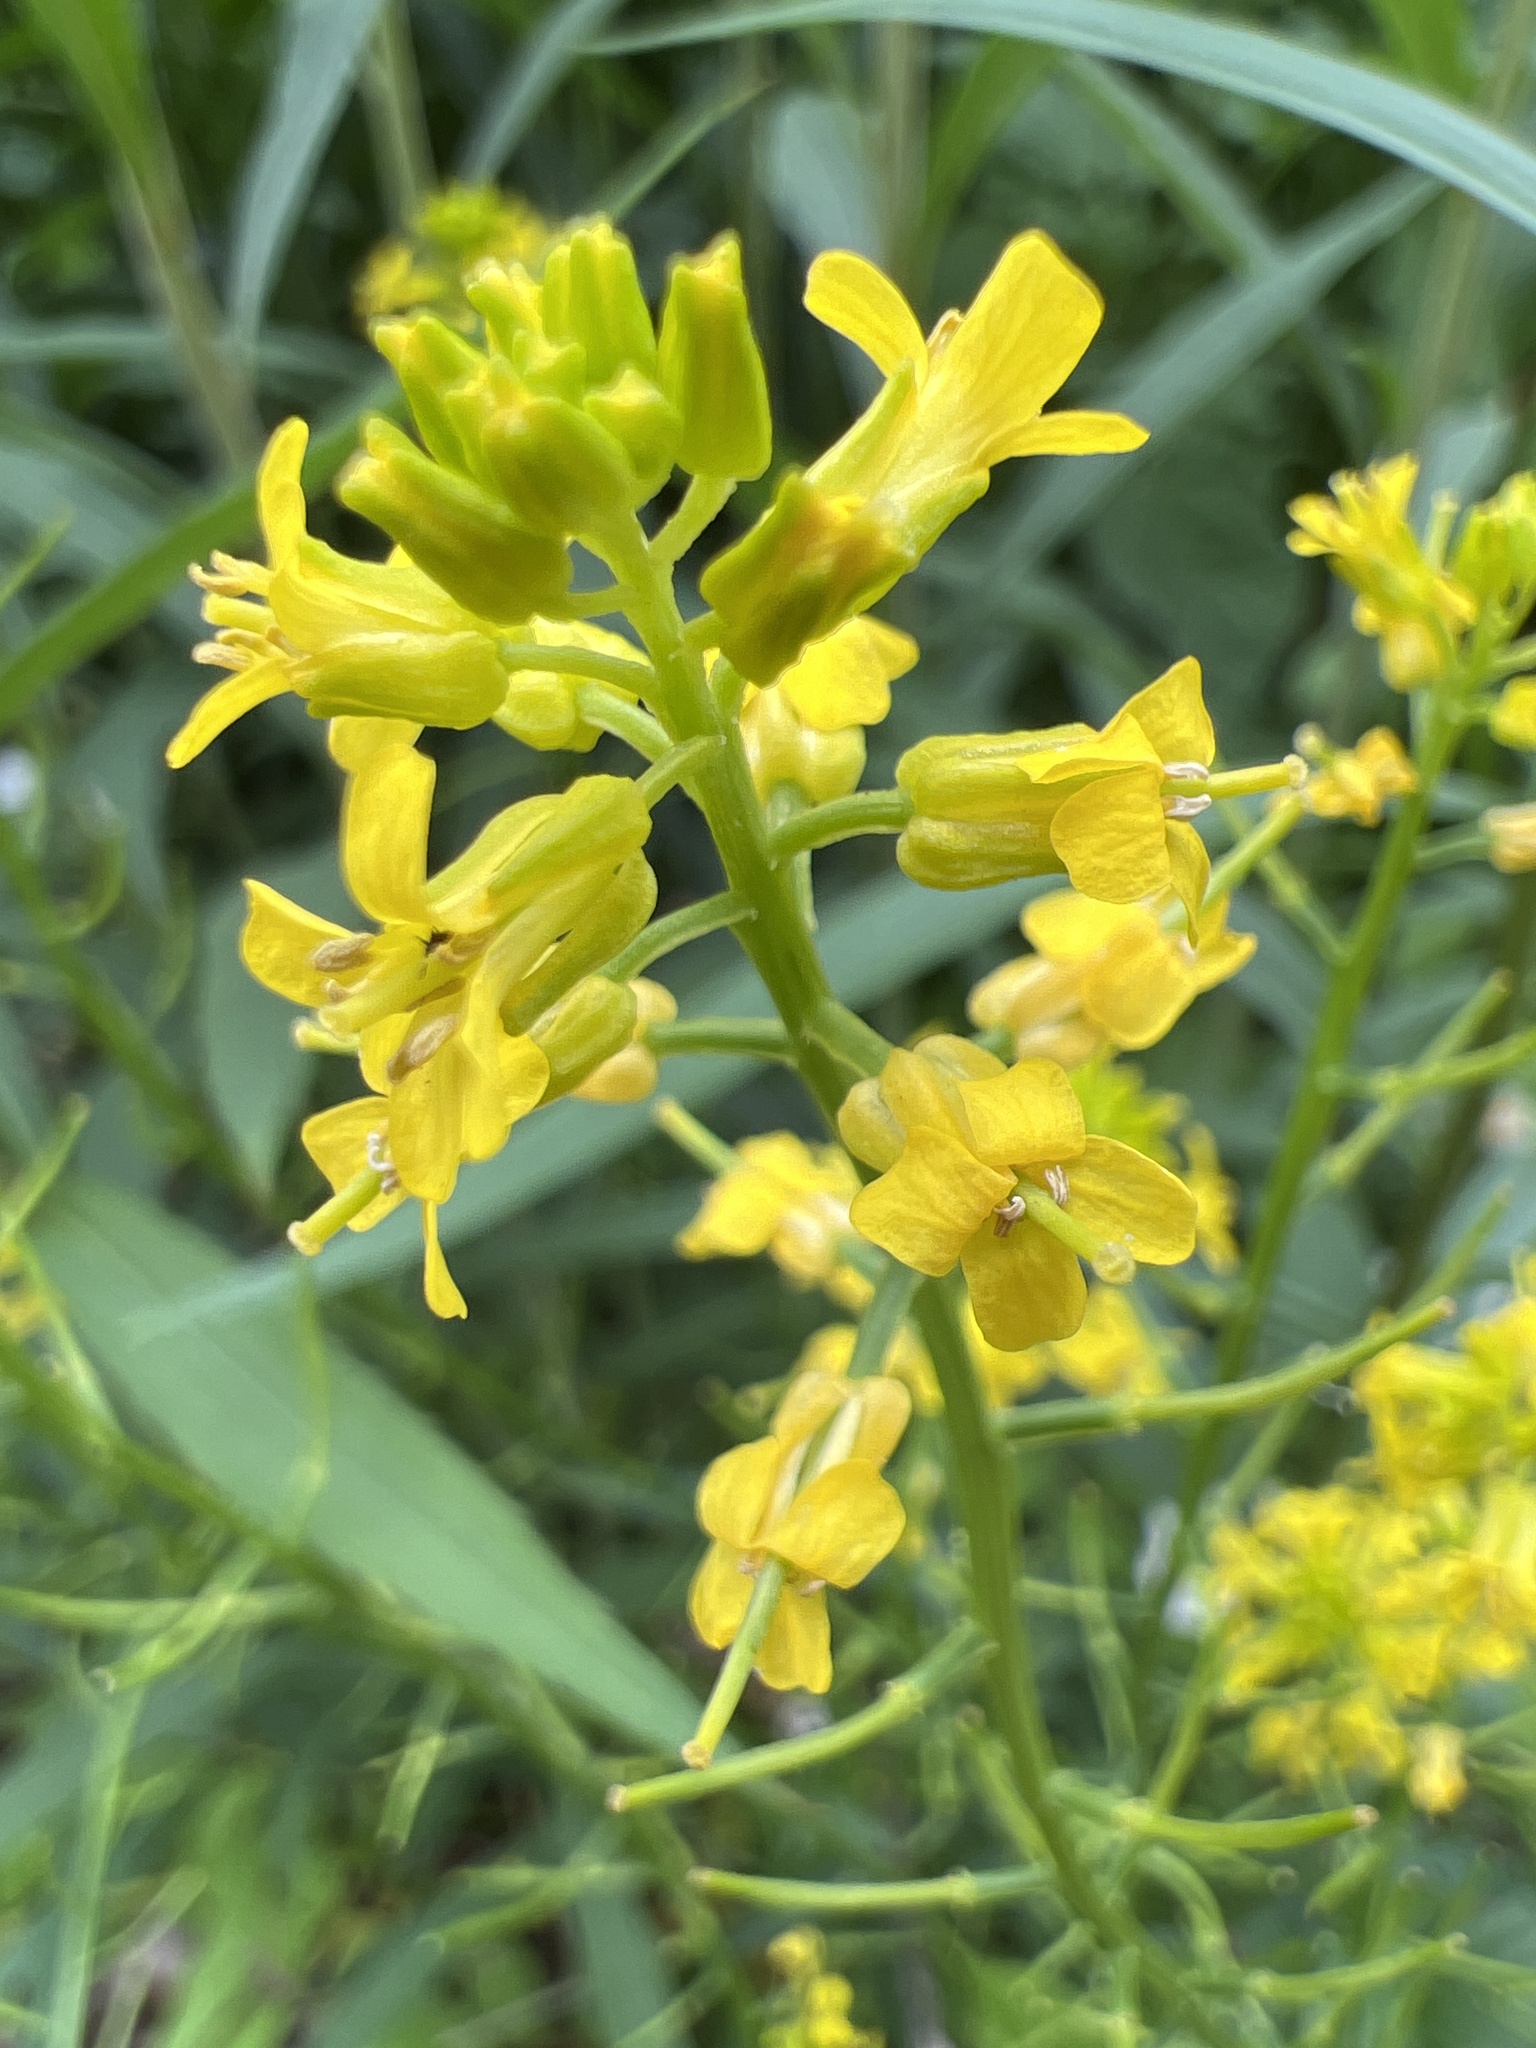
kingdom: Plantae
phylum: Tracheophyta
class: Magnoliopsida
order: Brassicales
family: Brassicaceae
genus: Barbarea
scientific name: Barbarea vulgaris
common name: Cressy-greens
